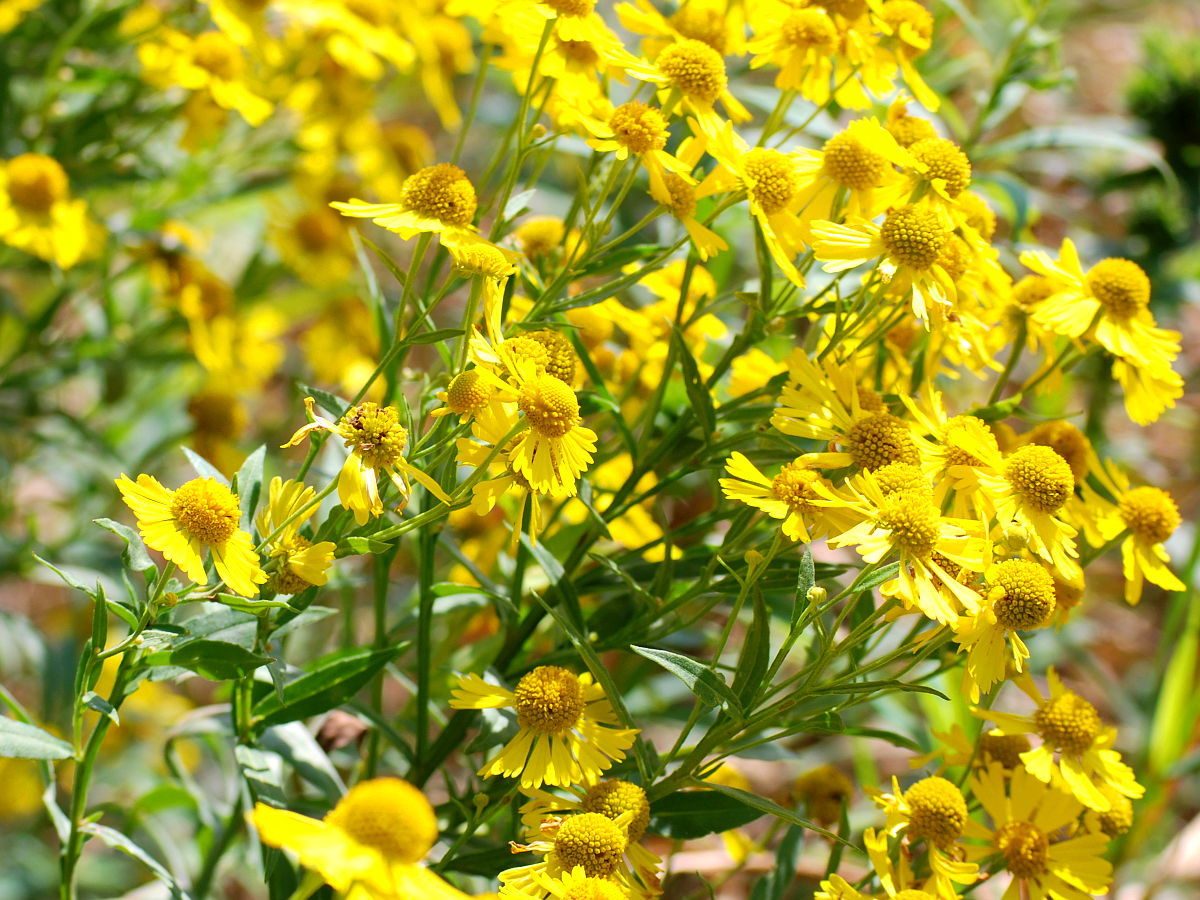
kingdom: Plantae
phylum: Tracheophyta
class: Magnoliopsida
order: Asterales
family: Asteraceae
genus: Helenium
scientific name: Helenium autumnale
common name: Sneezeweed
